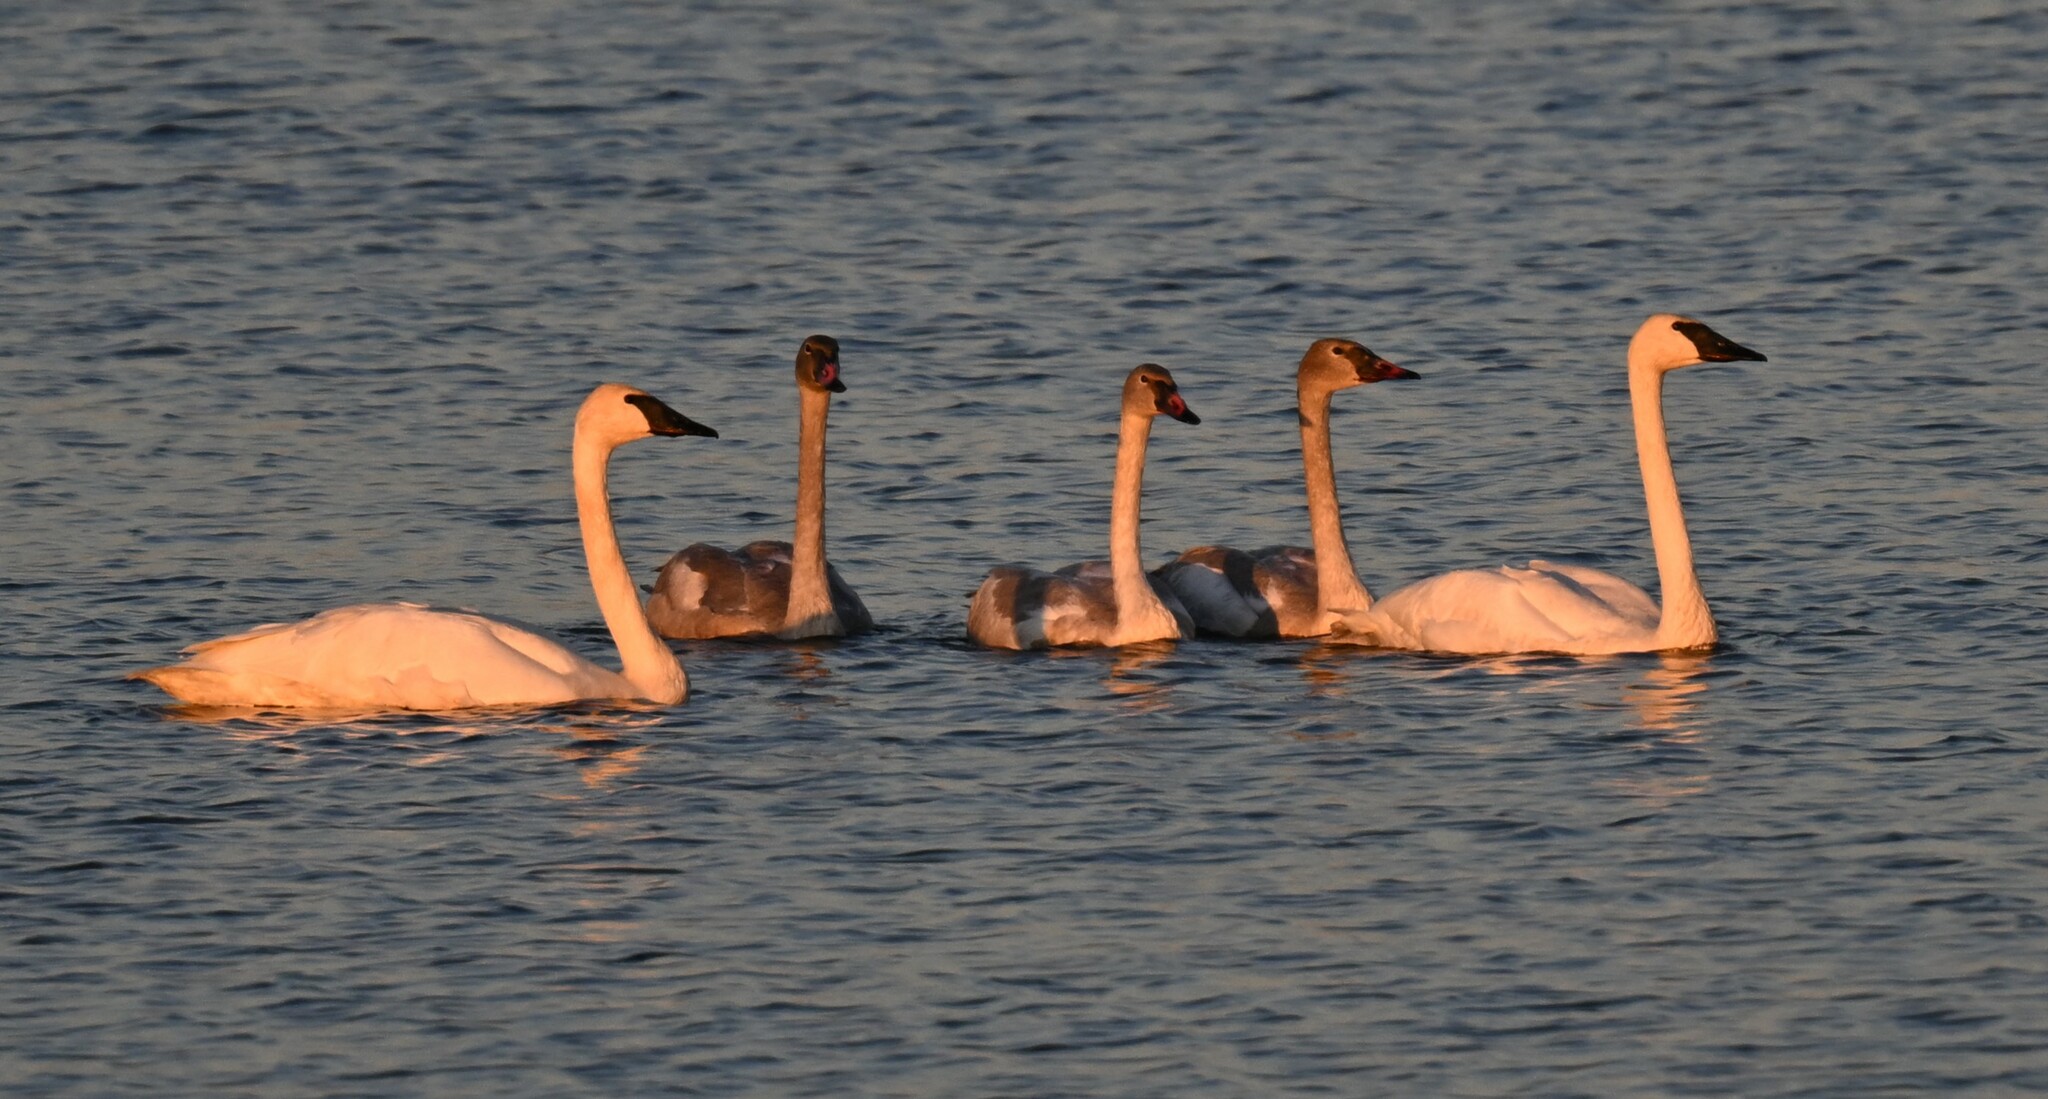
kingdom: Animalia
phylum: Chordata
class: Aves
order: Anseriformes
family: Anatidae
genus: Cygnus
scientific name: Cygnus buccinator
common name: Trumpeter swan
